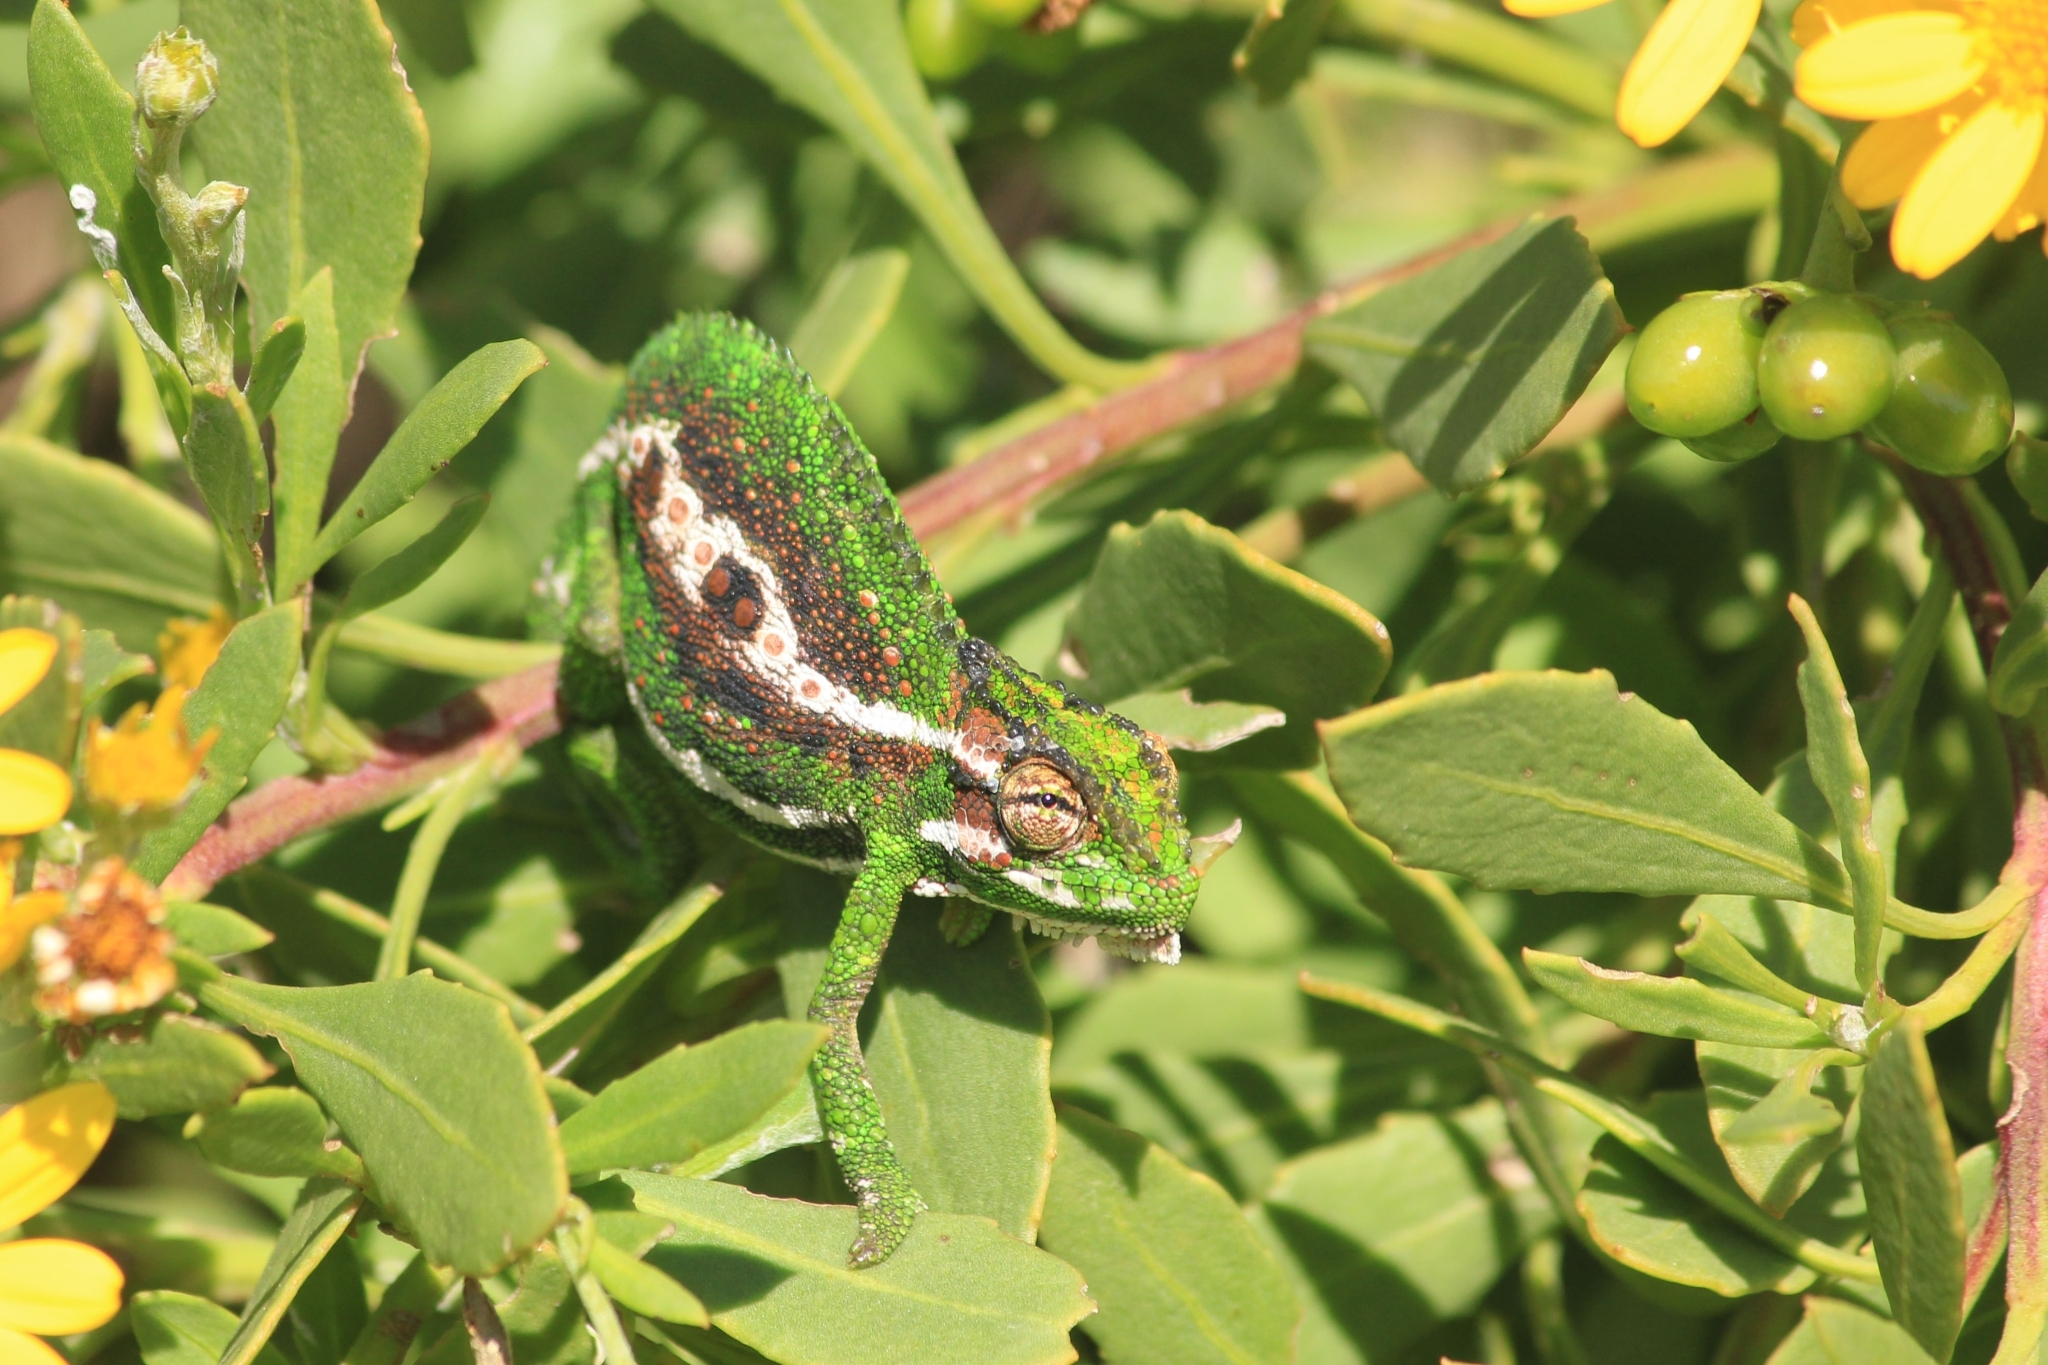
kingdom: Animalia
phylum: Chordata
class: Squamata
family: Chamaeleonidae
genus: Bradypodion
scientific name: Bradypodion pumilum
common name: Cape dwarf chameleon
